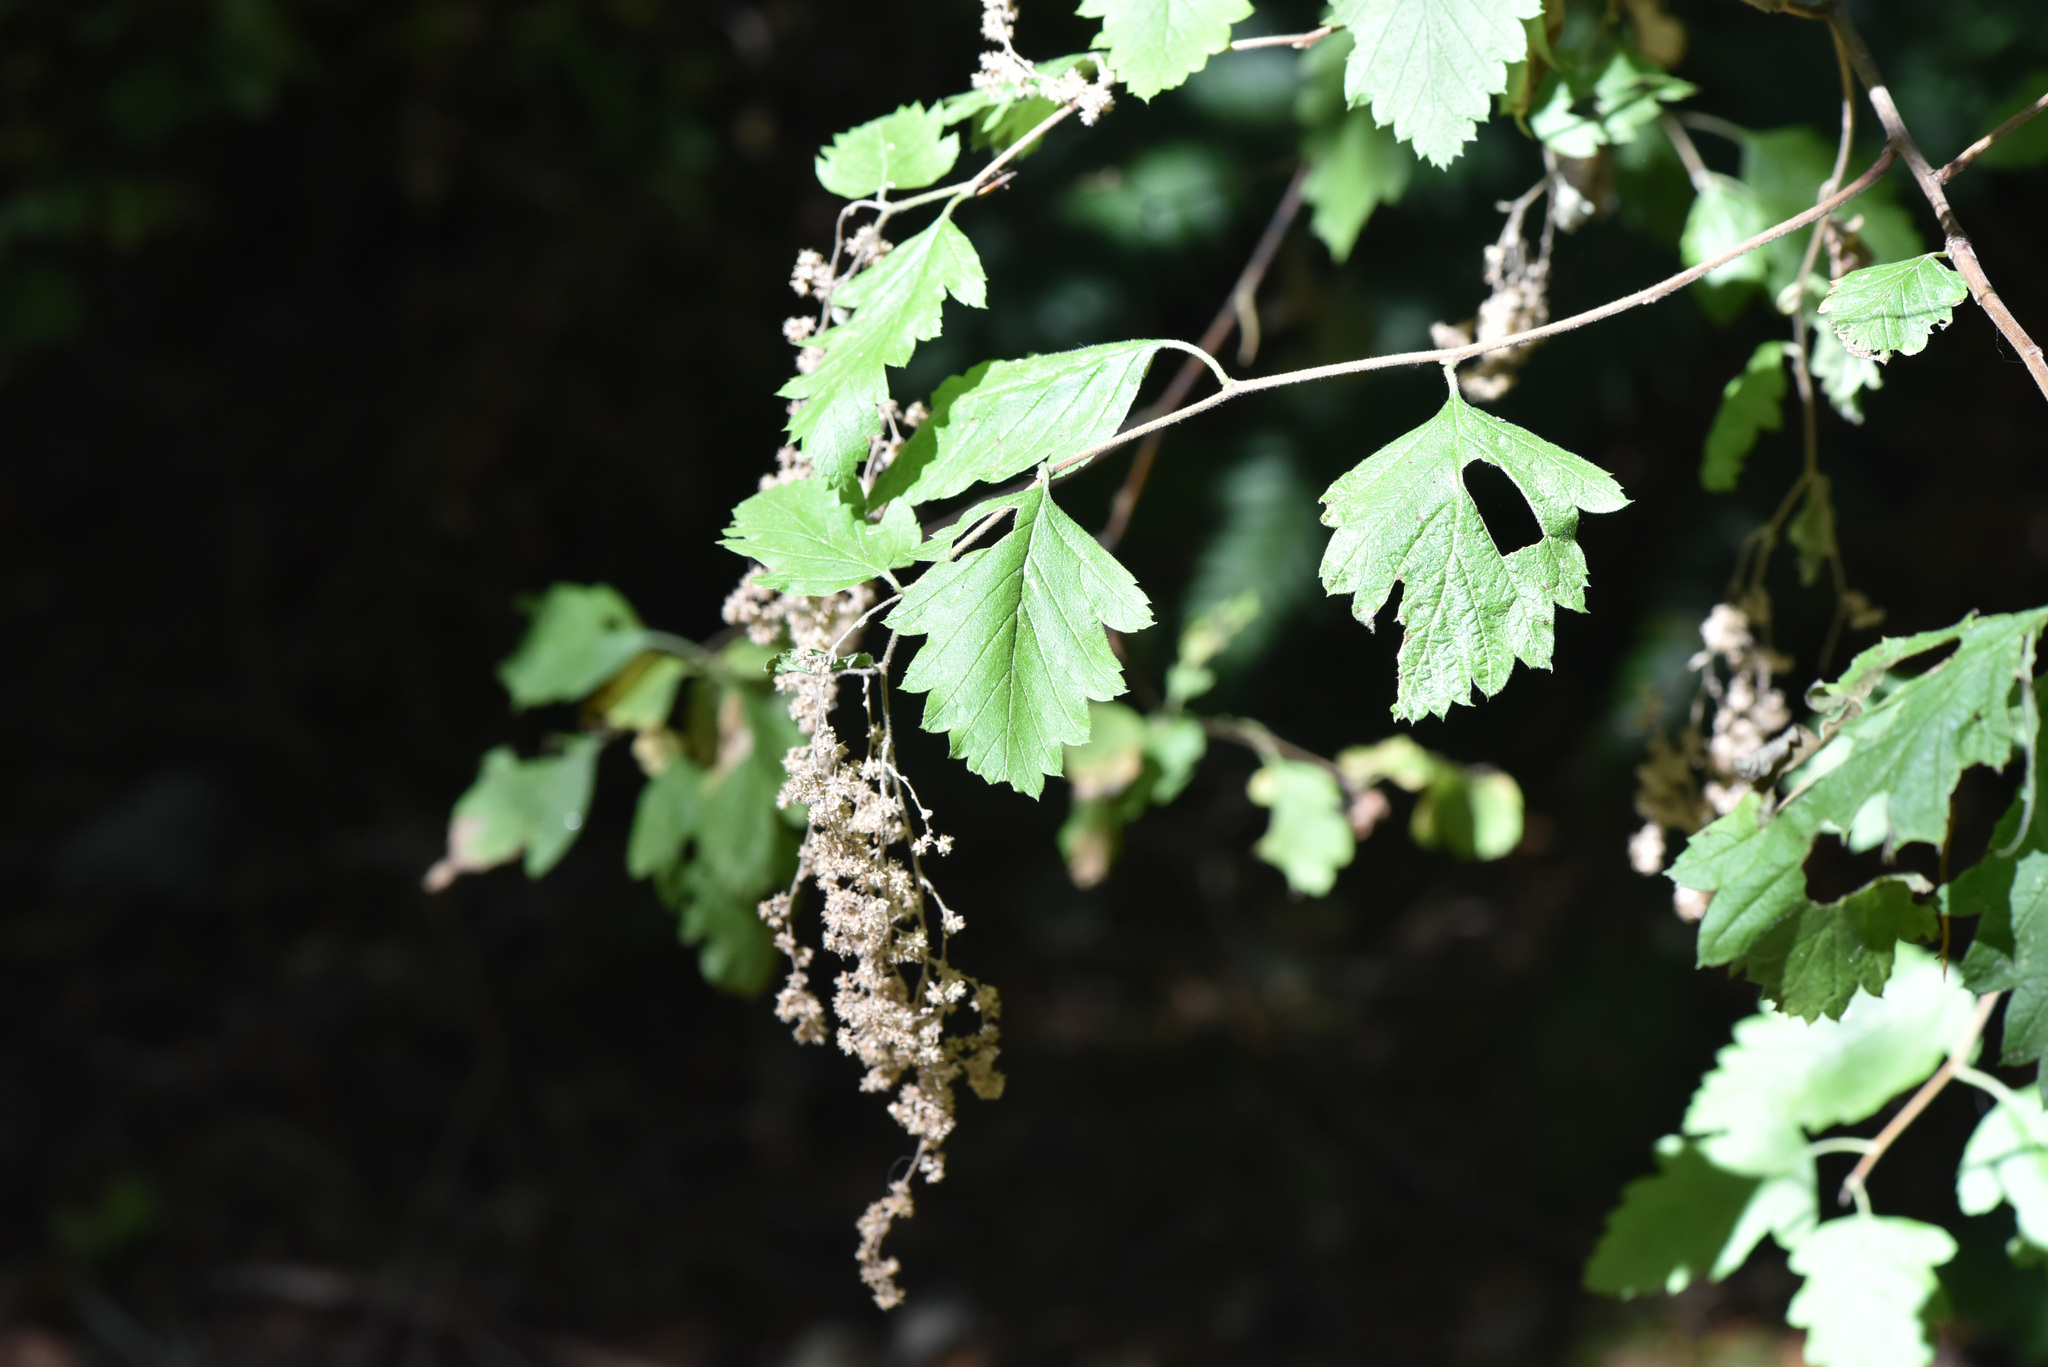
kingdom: Plantae
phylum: Tracheophyta
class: Magnoliopsida
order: Rosales
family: Rosaceae
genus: Holodiscus
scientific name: Holodiscus discolor
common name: Oceanspray
